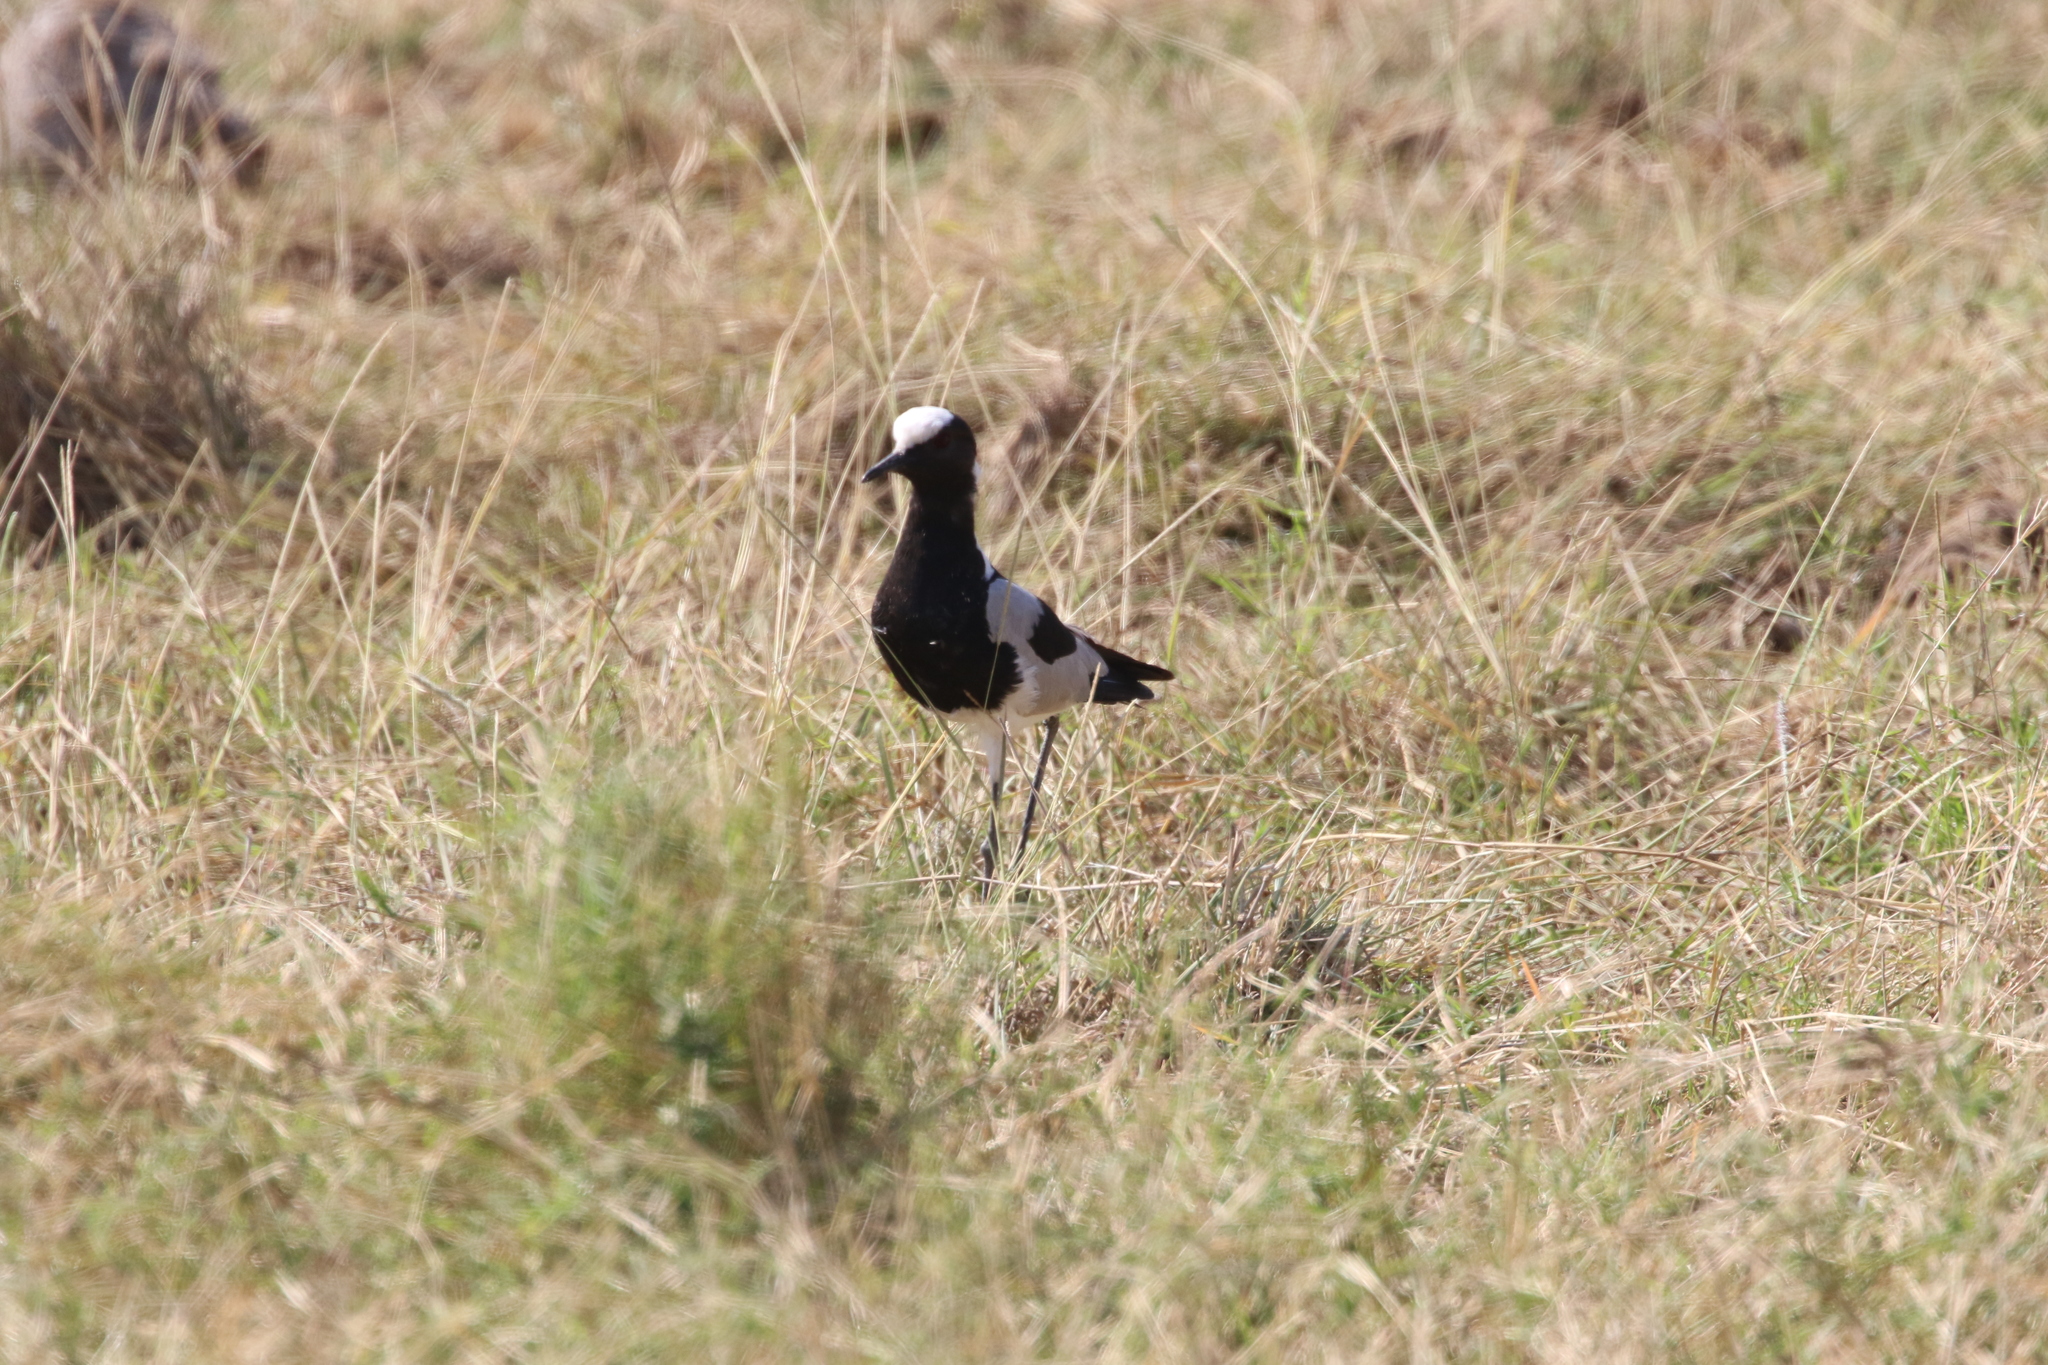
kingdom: Animalia
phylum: Chordata
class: Aves
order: Charadriiformes
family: Charadriidae
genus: Vanellus
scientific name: Vanellus armatus
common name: Blacksmith lapwing
